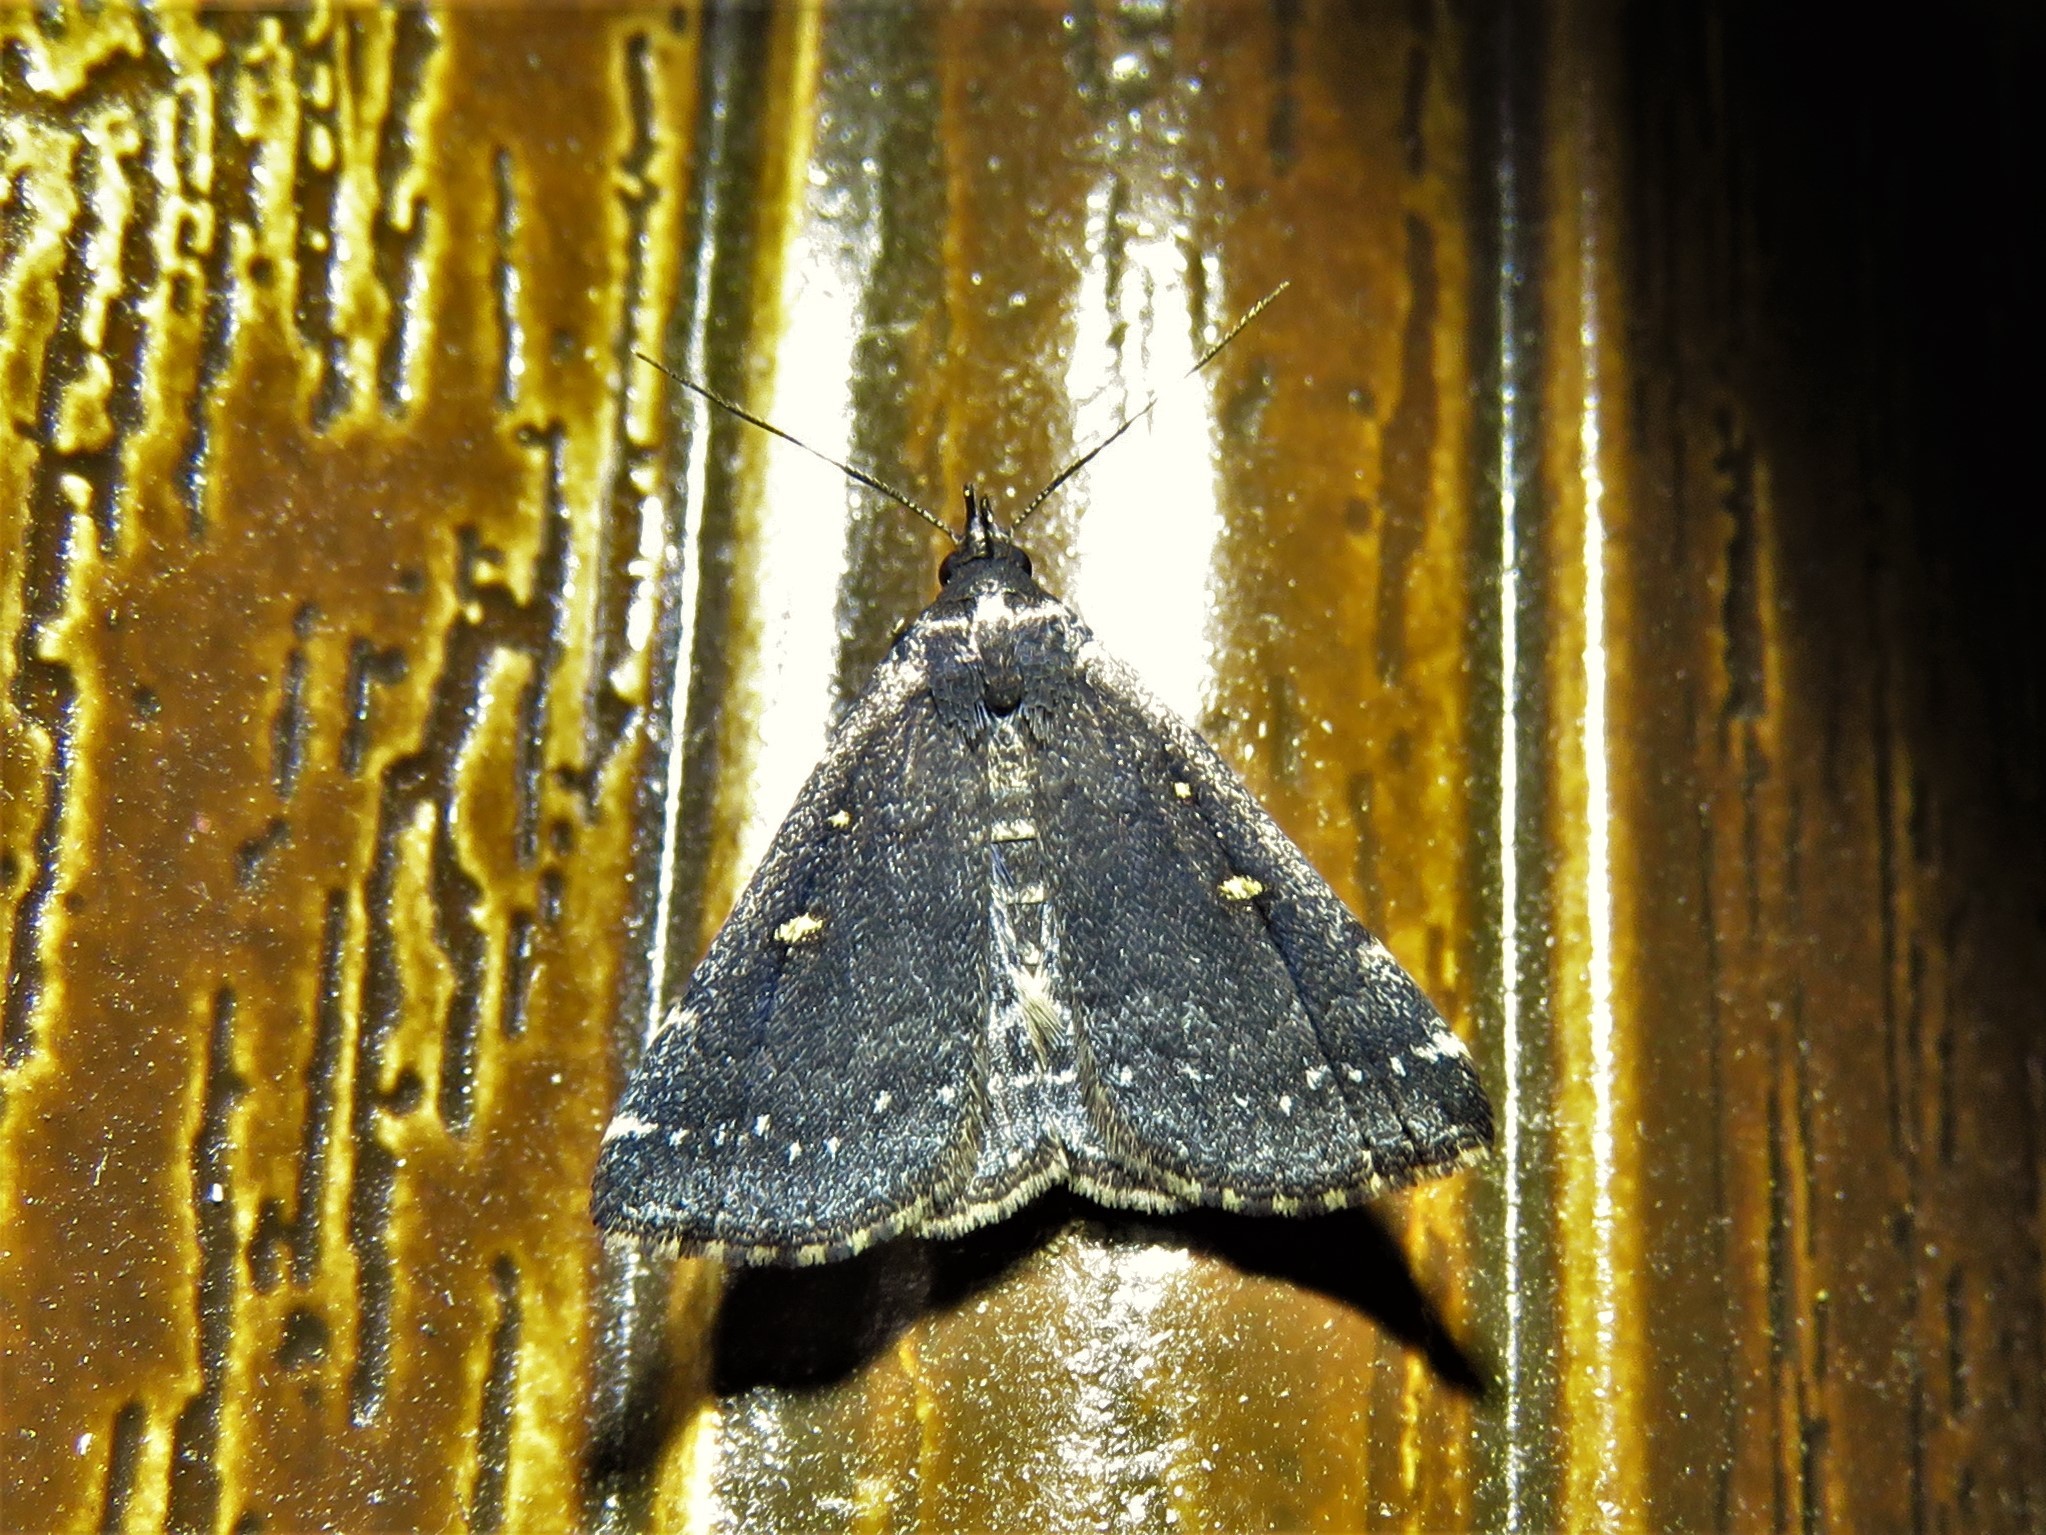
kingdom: Animalia
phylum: Arthropoda
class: Insecta
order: Lepidoptera
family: Erebidae
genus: Tetanolita
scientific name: Tetanolita mynesalis
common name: Smoky tetanolita moth
